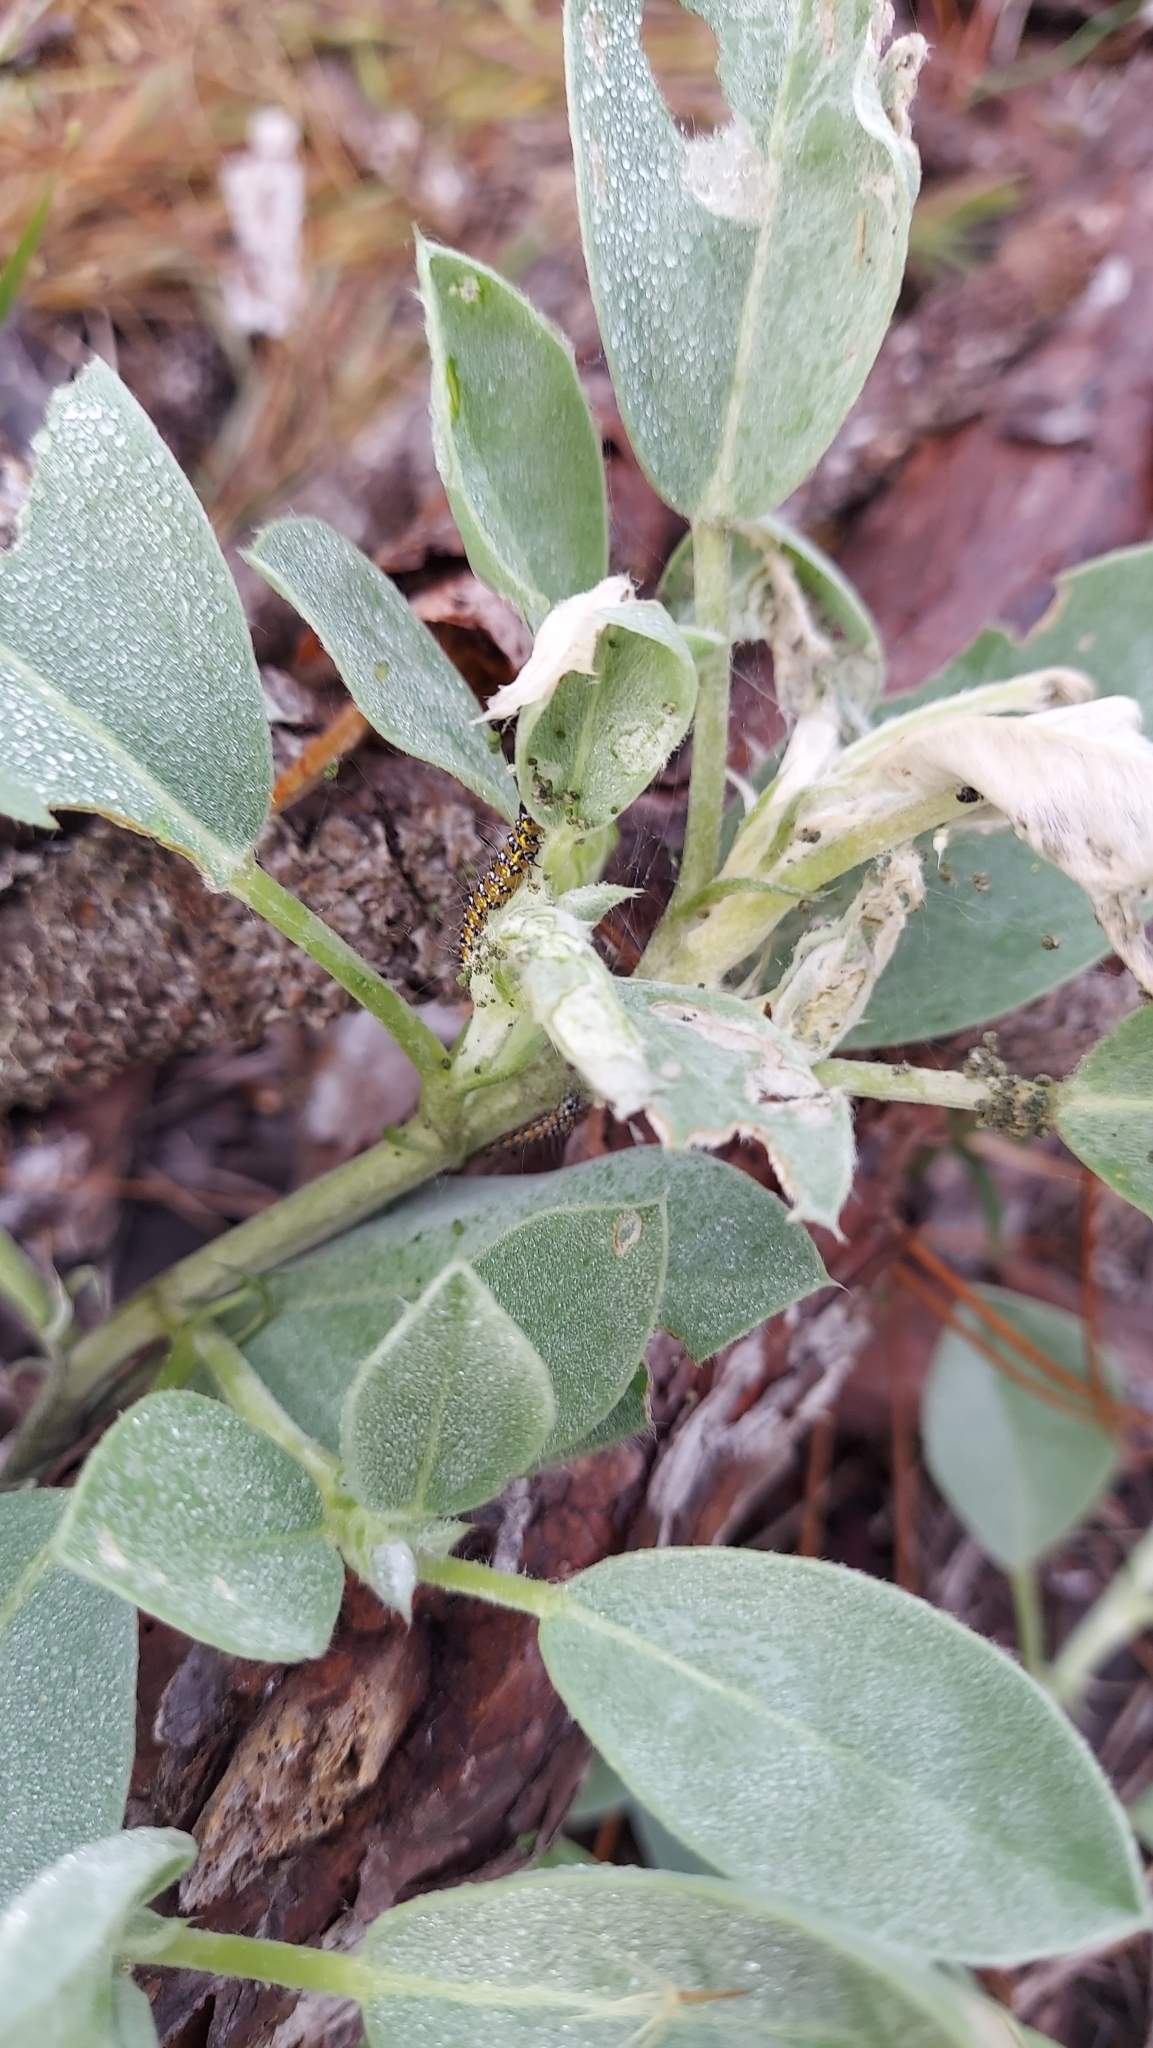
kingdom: Animalia
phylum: Arthropoda
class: Insecta
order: Lepidoptera
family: Crambidae
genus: Uresiphita
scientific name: Uresiphita reversalis
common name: Genista broom moth
